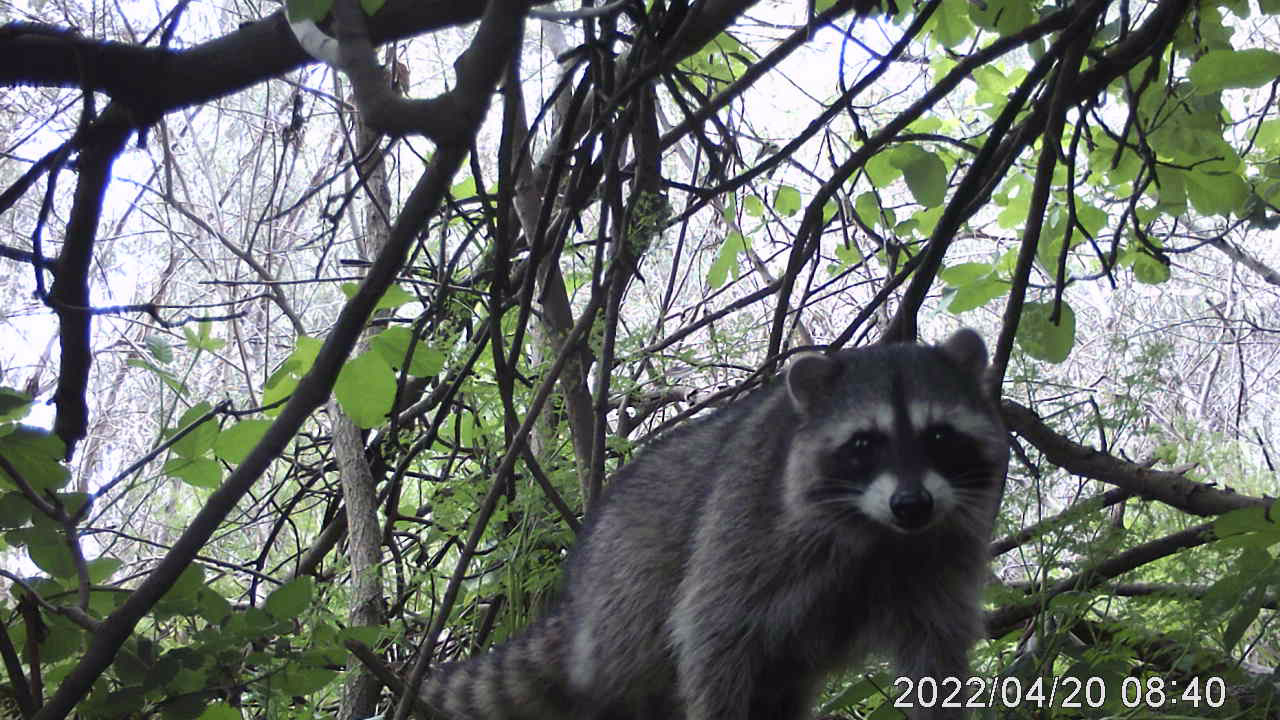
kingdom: Animalia
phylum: Chordata
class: Mammalia
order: Carnivora
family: Procyonidae
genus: Procyon
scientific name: Procyon lotor
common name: Raccoon
